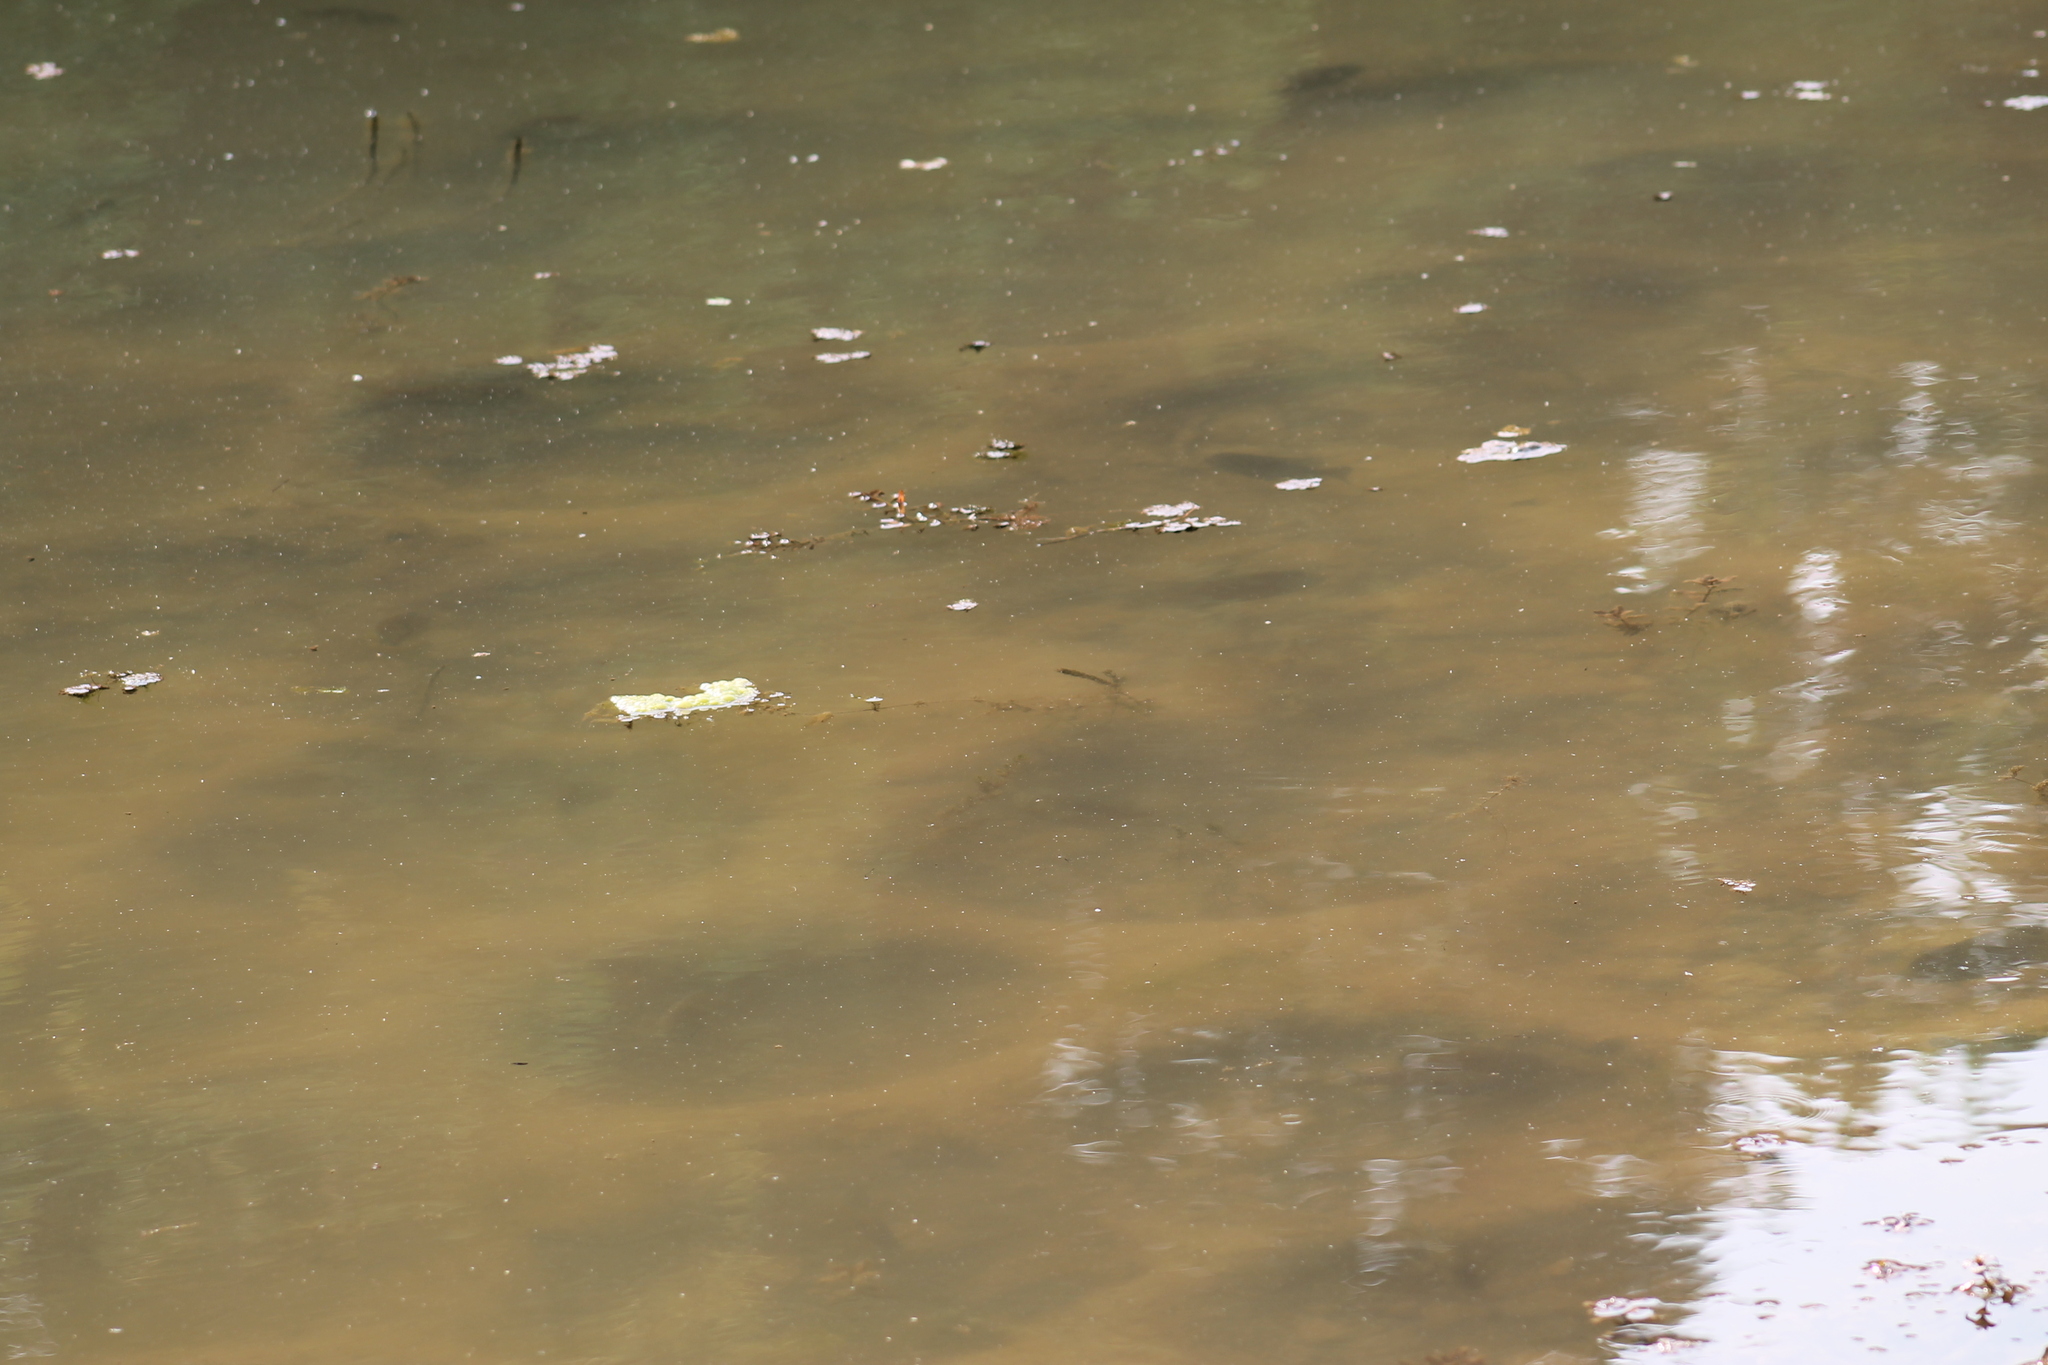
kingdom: Animalia
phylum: Chordata
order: Perciformes
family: Centrarchidae
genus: Lepomis
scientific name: Lepomis macrochirus
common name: Bluegill
